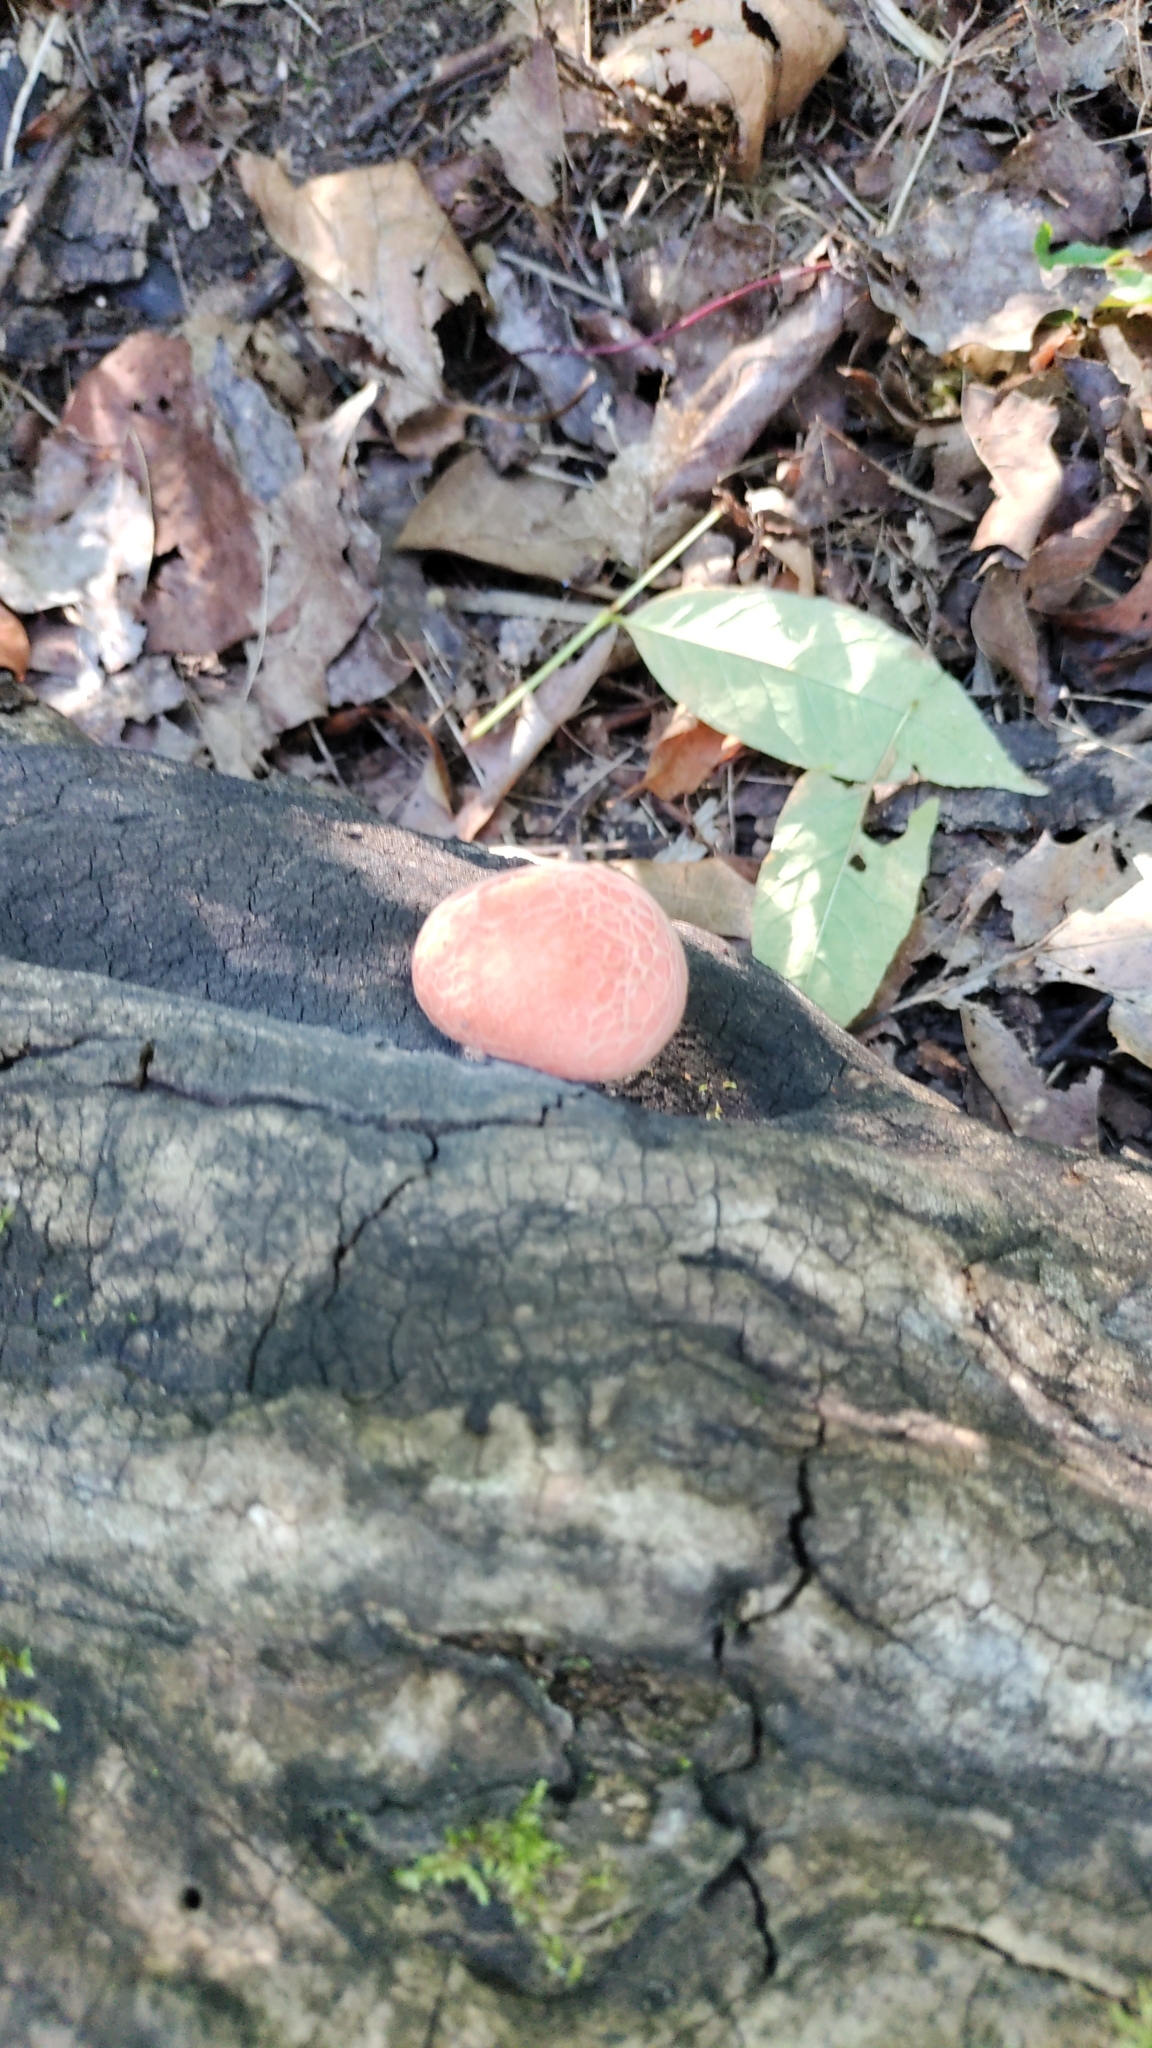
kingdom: Fungi
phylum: Basidiomycota
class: Agaricomycetes
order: Agaricales
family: Physalacriaceae
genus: Rhodotus
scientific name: Rhodotus palmatus
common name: Wrinkled peach
